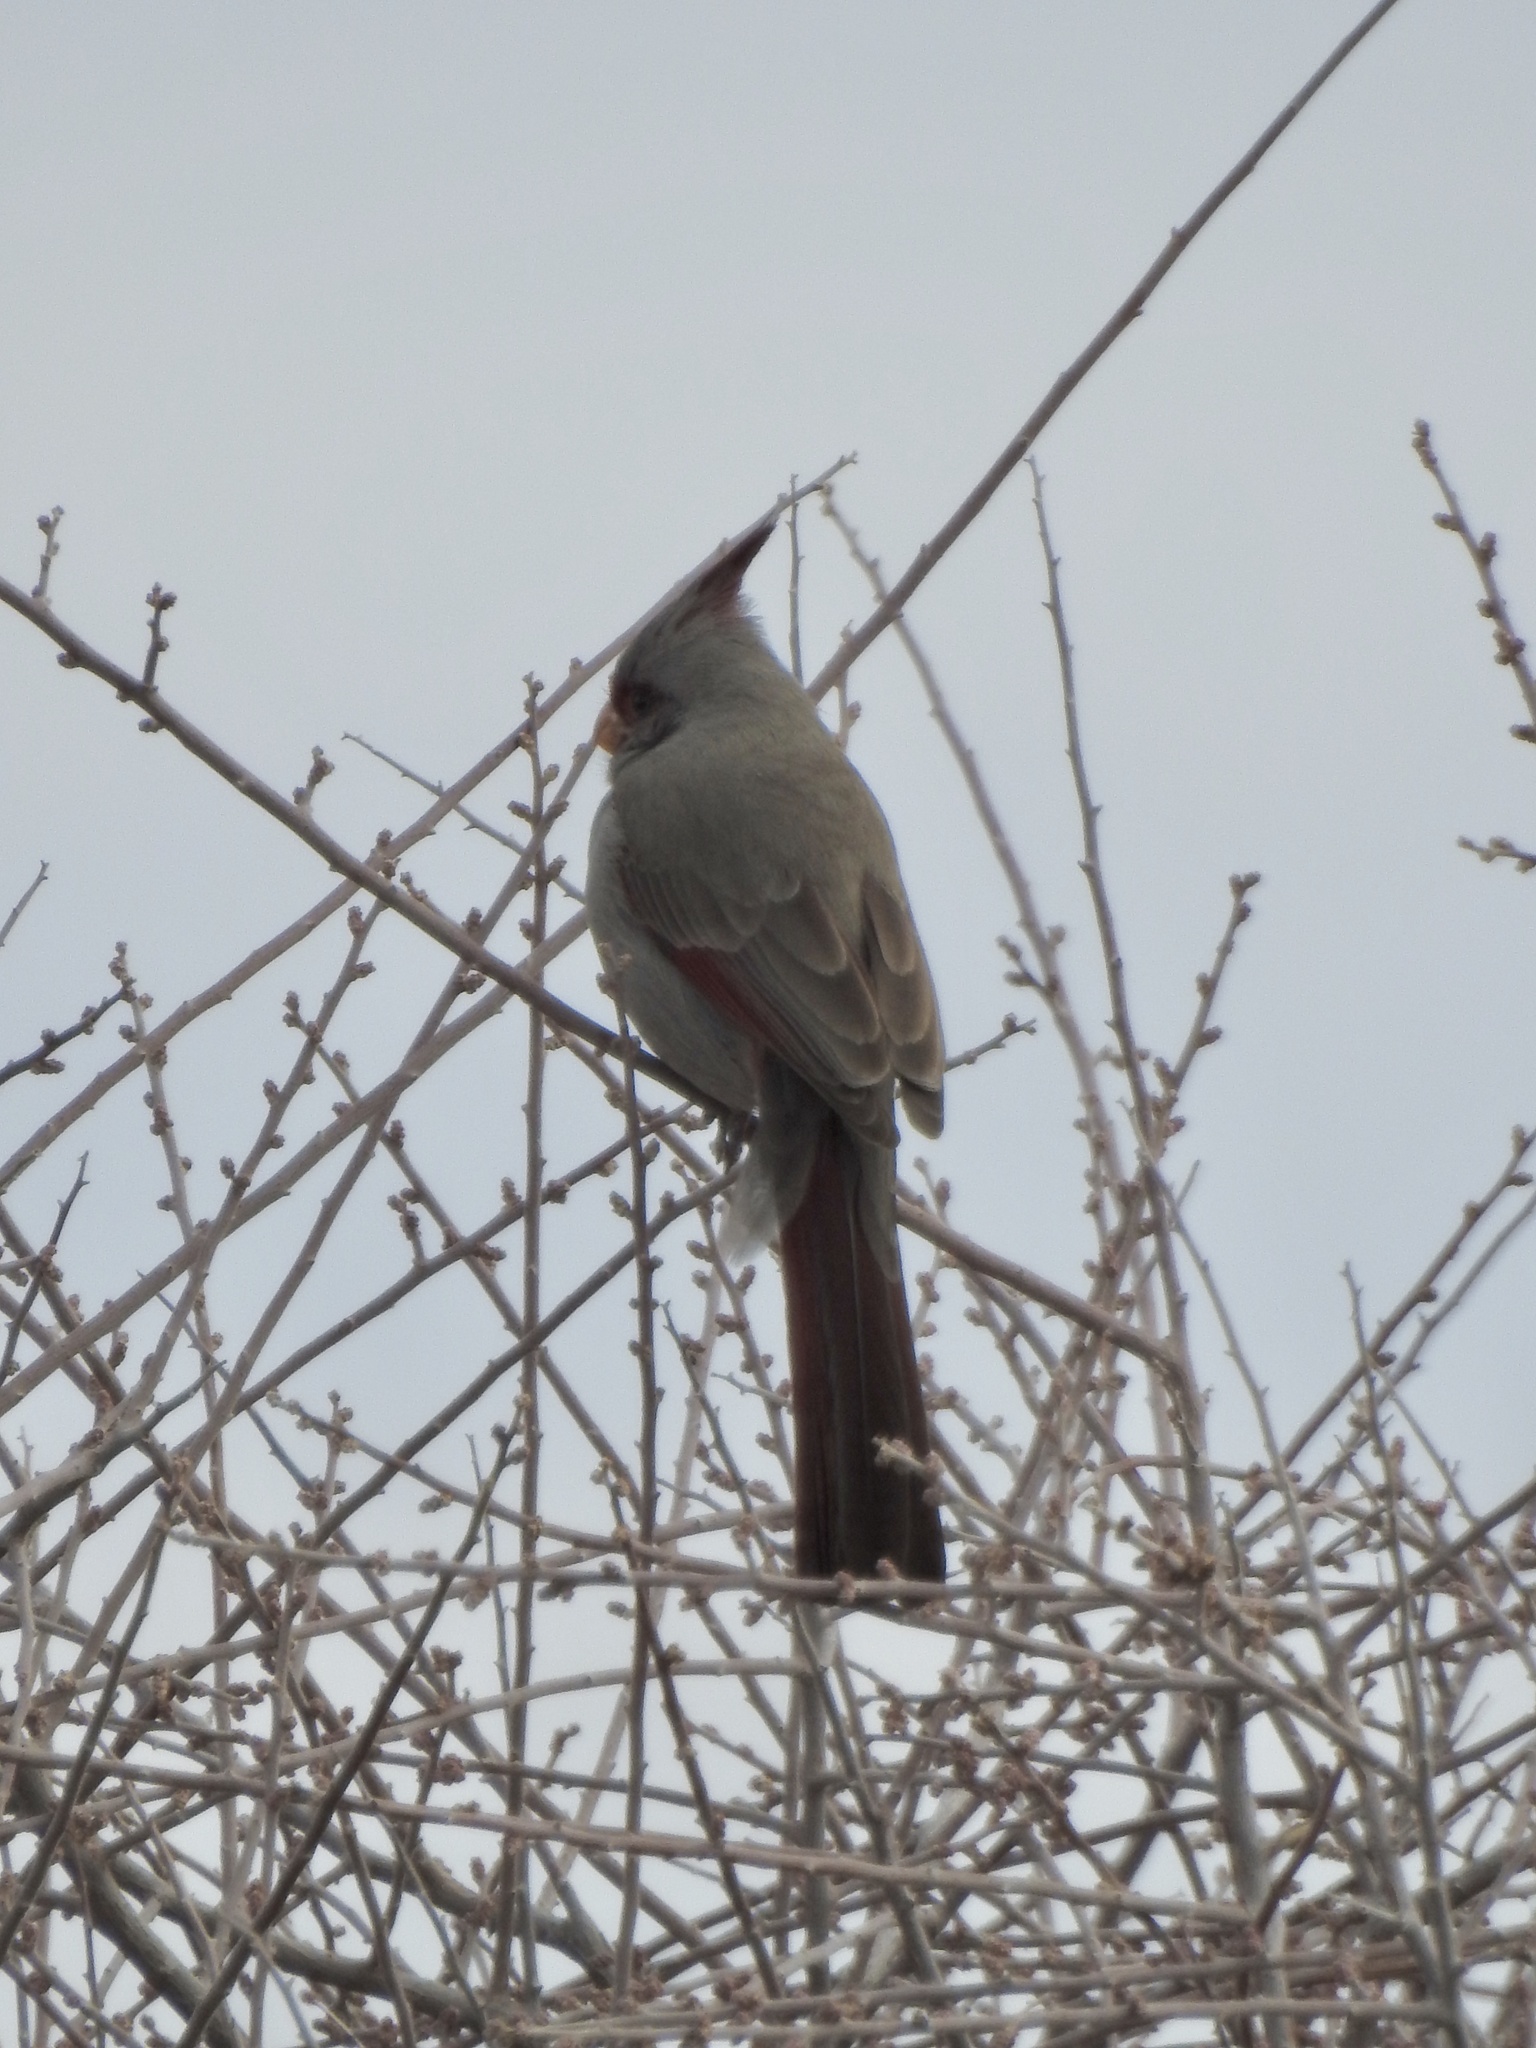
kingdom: Animalia
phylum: Chordata
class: Aves
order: Passeriformes
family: Cardinalidae
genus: Cardinalis
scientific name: Cardinalis sinuatus
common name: Pyrrhuloxia
